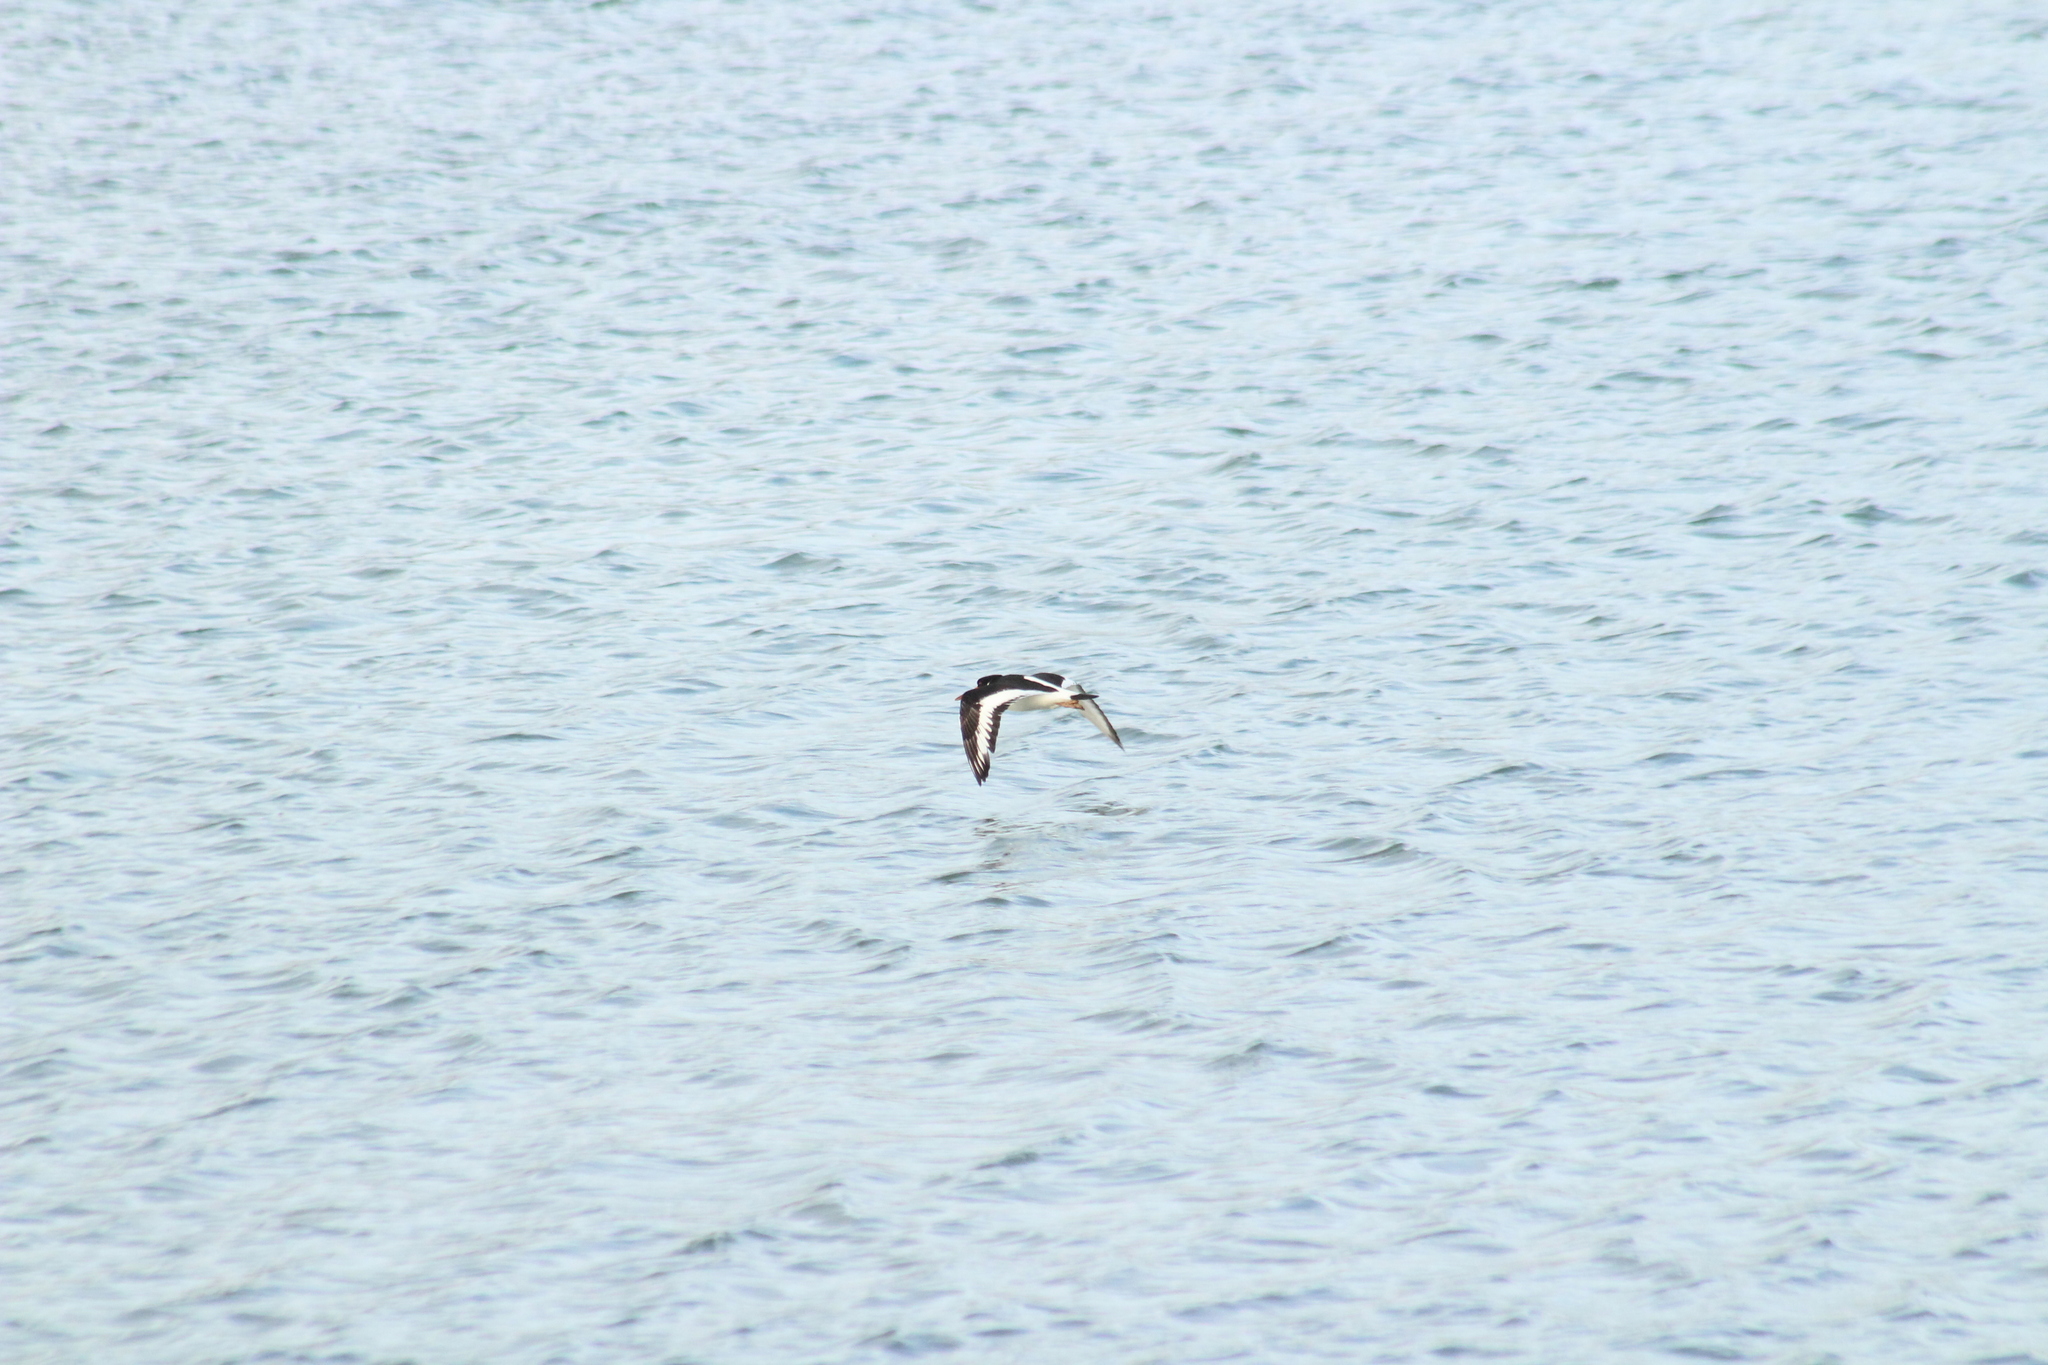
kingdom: Animalia
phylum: Chordata
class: Aves
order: Charadriiformes
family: Haematopodidae
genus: Haematopus
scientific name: Haematopus ostralegus
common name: Eurasian oystercatcher
